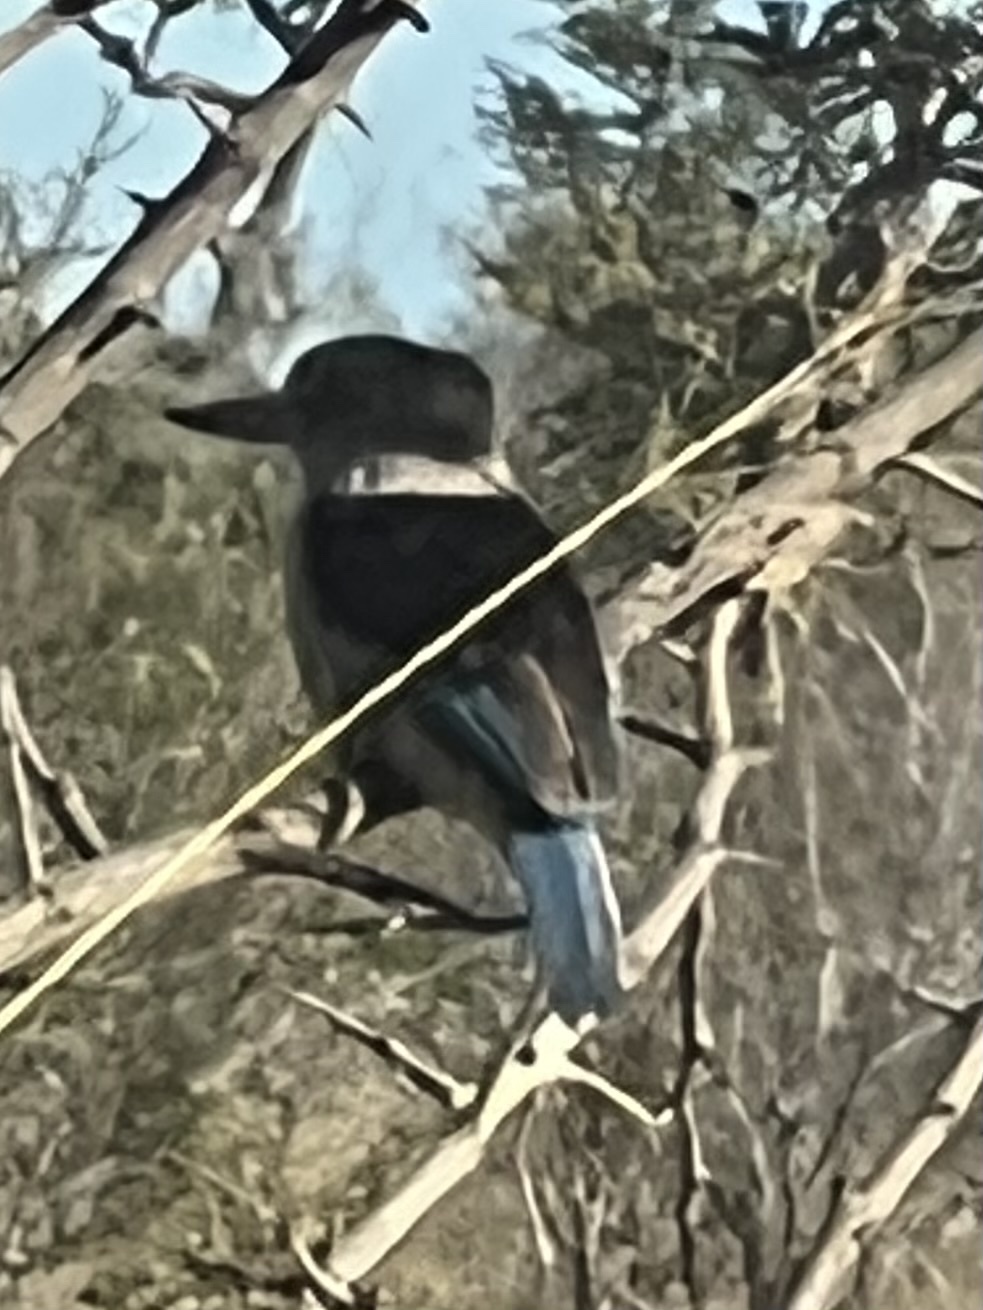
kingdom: Animalia
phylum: Chordata
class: Aves
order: Coraciiformes
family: Alcedinidae
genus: Halcyon
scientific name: Halcyon albiventris
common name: Brown-hooded kingfisher
